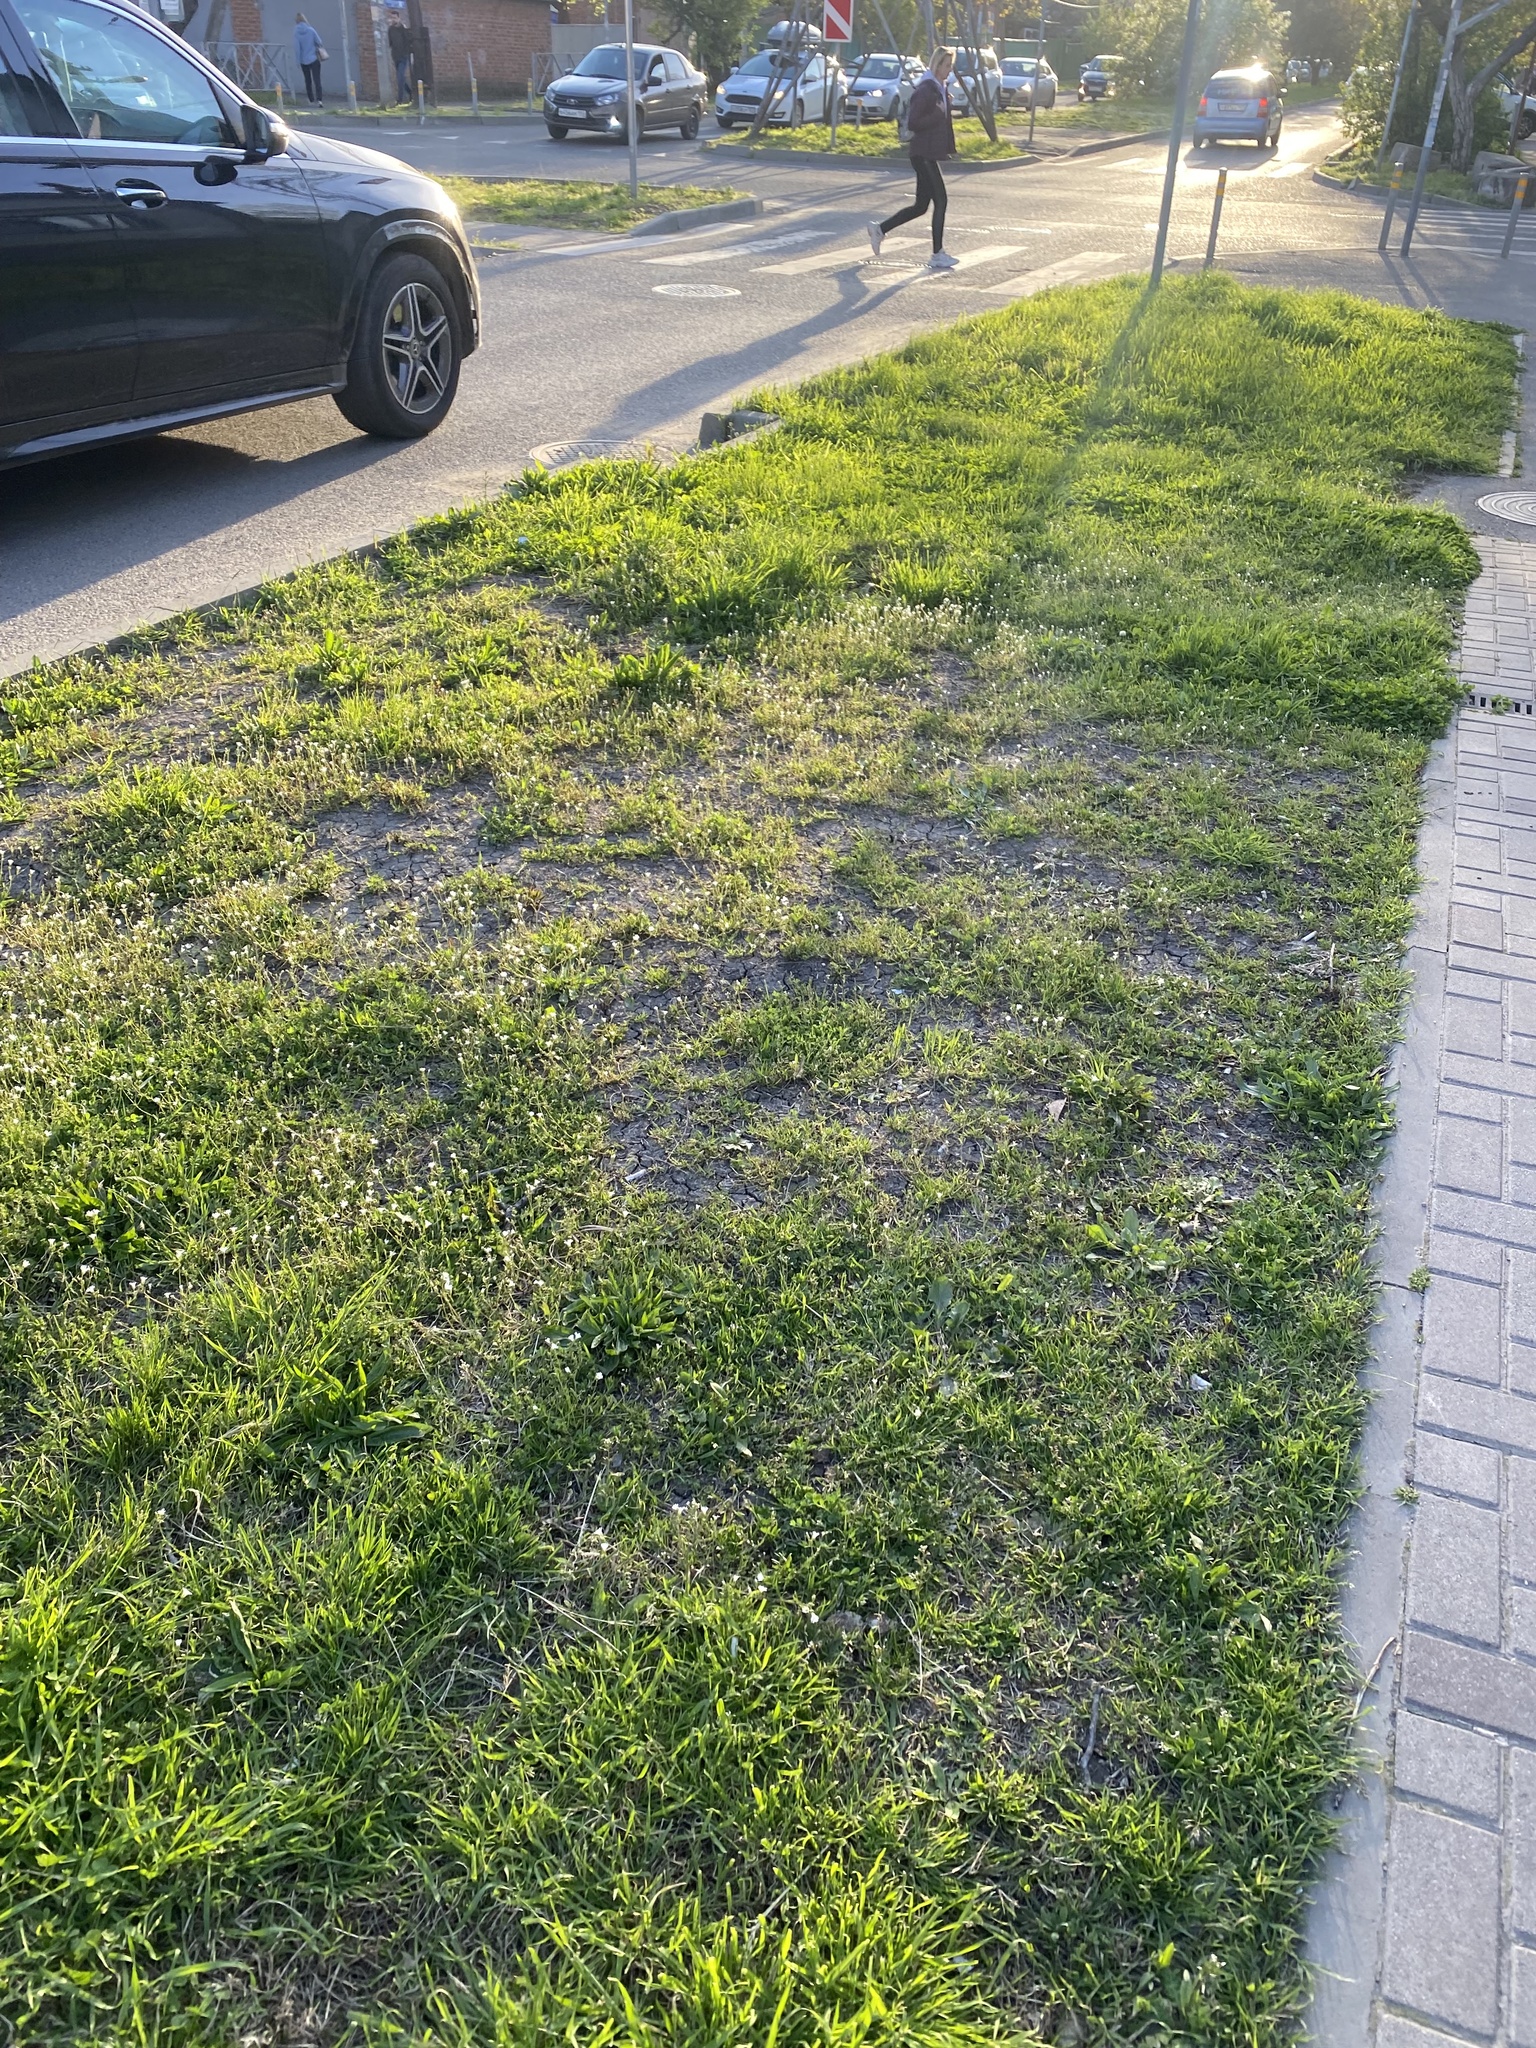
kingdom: Plantae
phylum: Tracheophyta
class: Magnoliopsida
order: Caryophyllales
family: Caryophyllaceae
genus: Dichodon
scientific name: Dichodon viscidum
